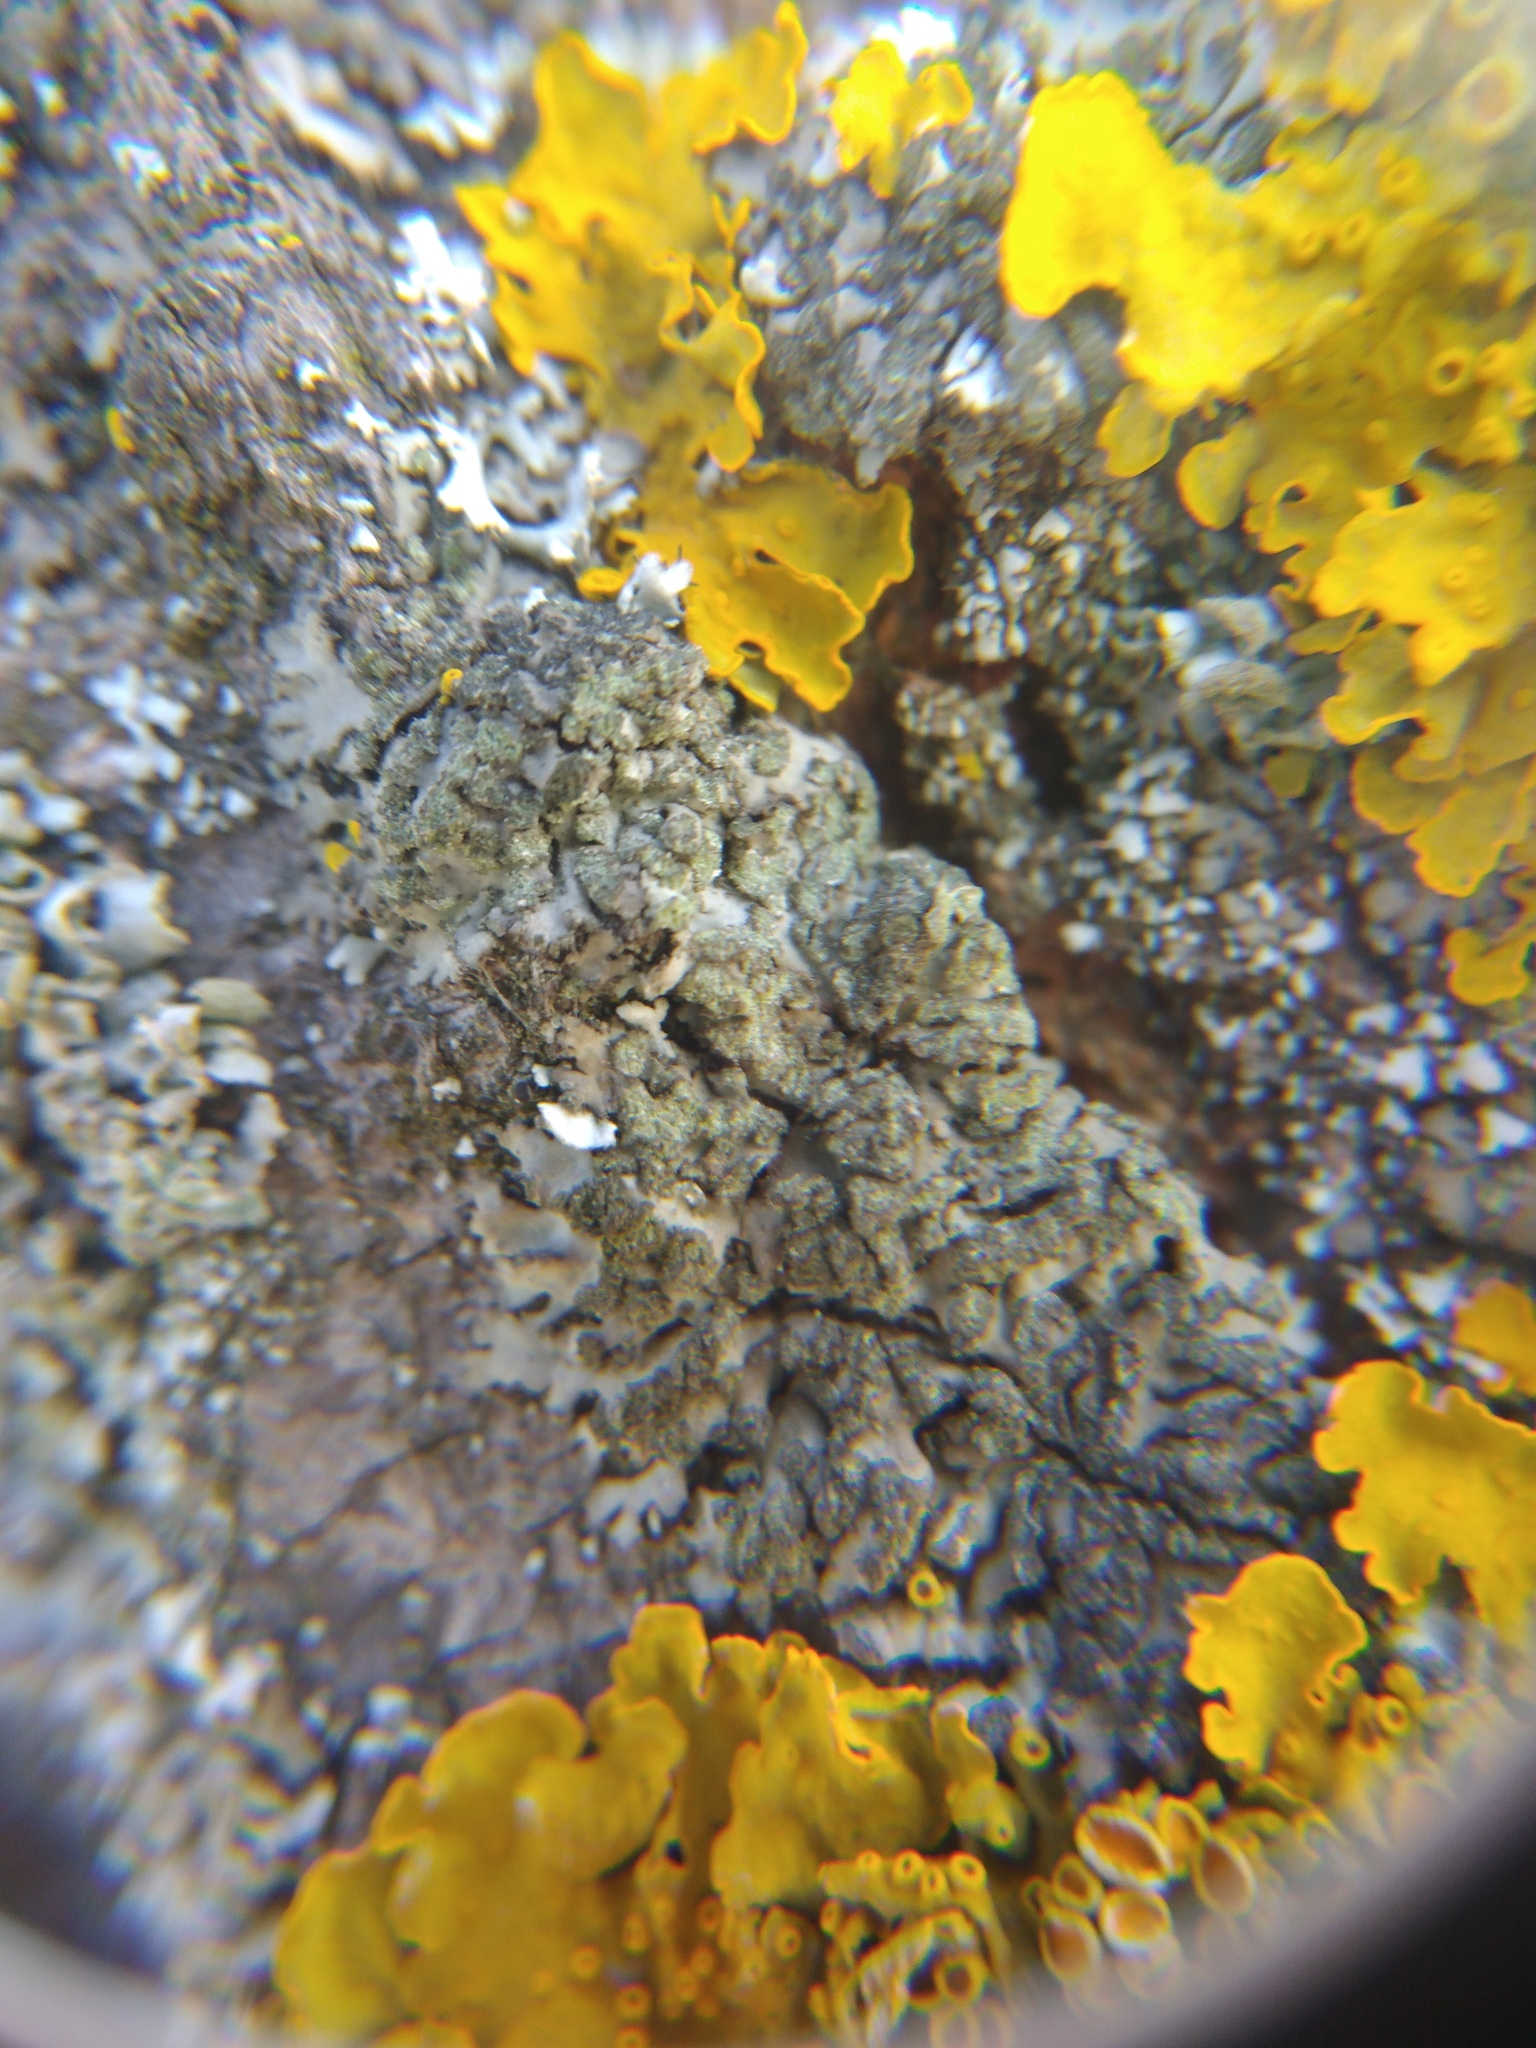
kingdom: Fungi
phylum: Ascomycota
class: Lecanoromycetes
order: Caliciales
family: Physciaceae
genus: Phaeophyscia
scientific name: Phaeophyscia orbicularis
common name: Mealy shadow lichen
